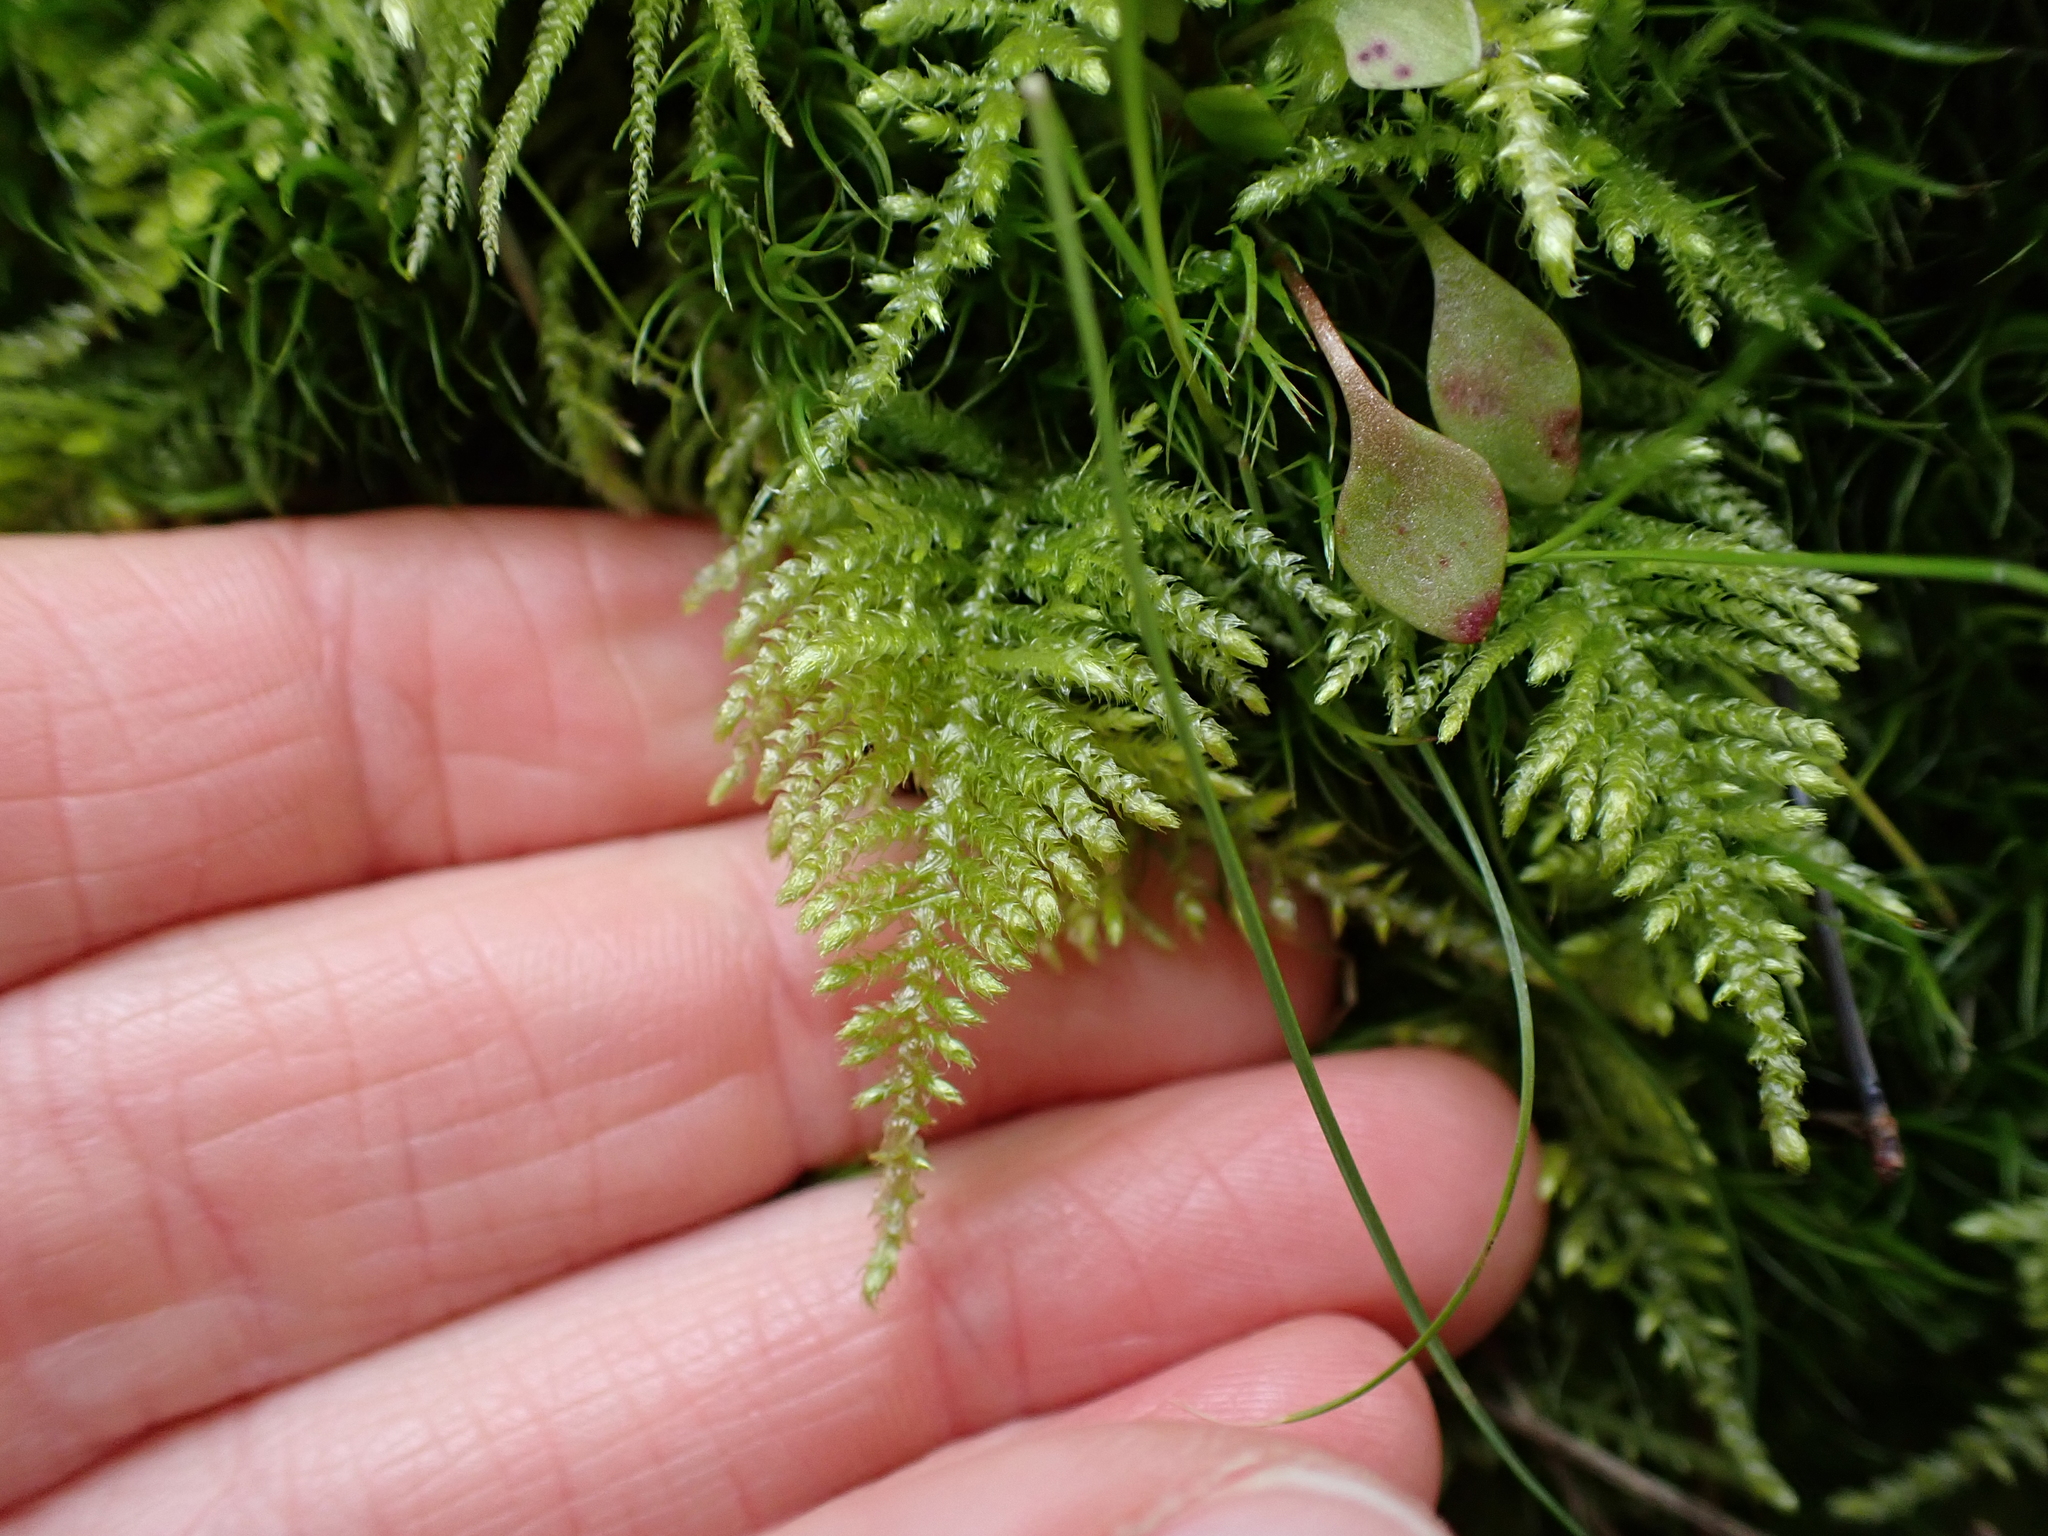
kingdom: Plantae
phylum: Bryophyta
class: Bryopsida
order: Hypnales
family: Brachytheciaceae
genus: Kindbergia
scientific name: Kindbergia oregana
